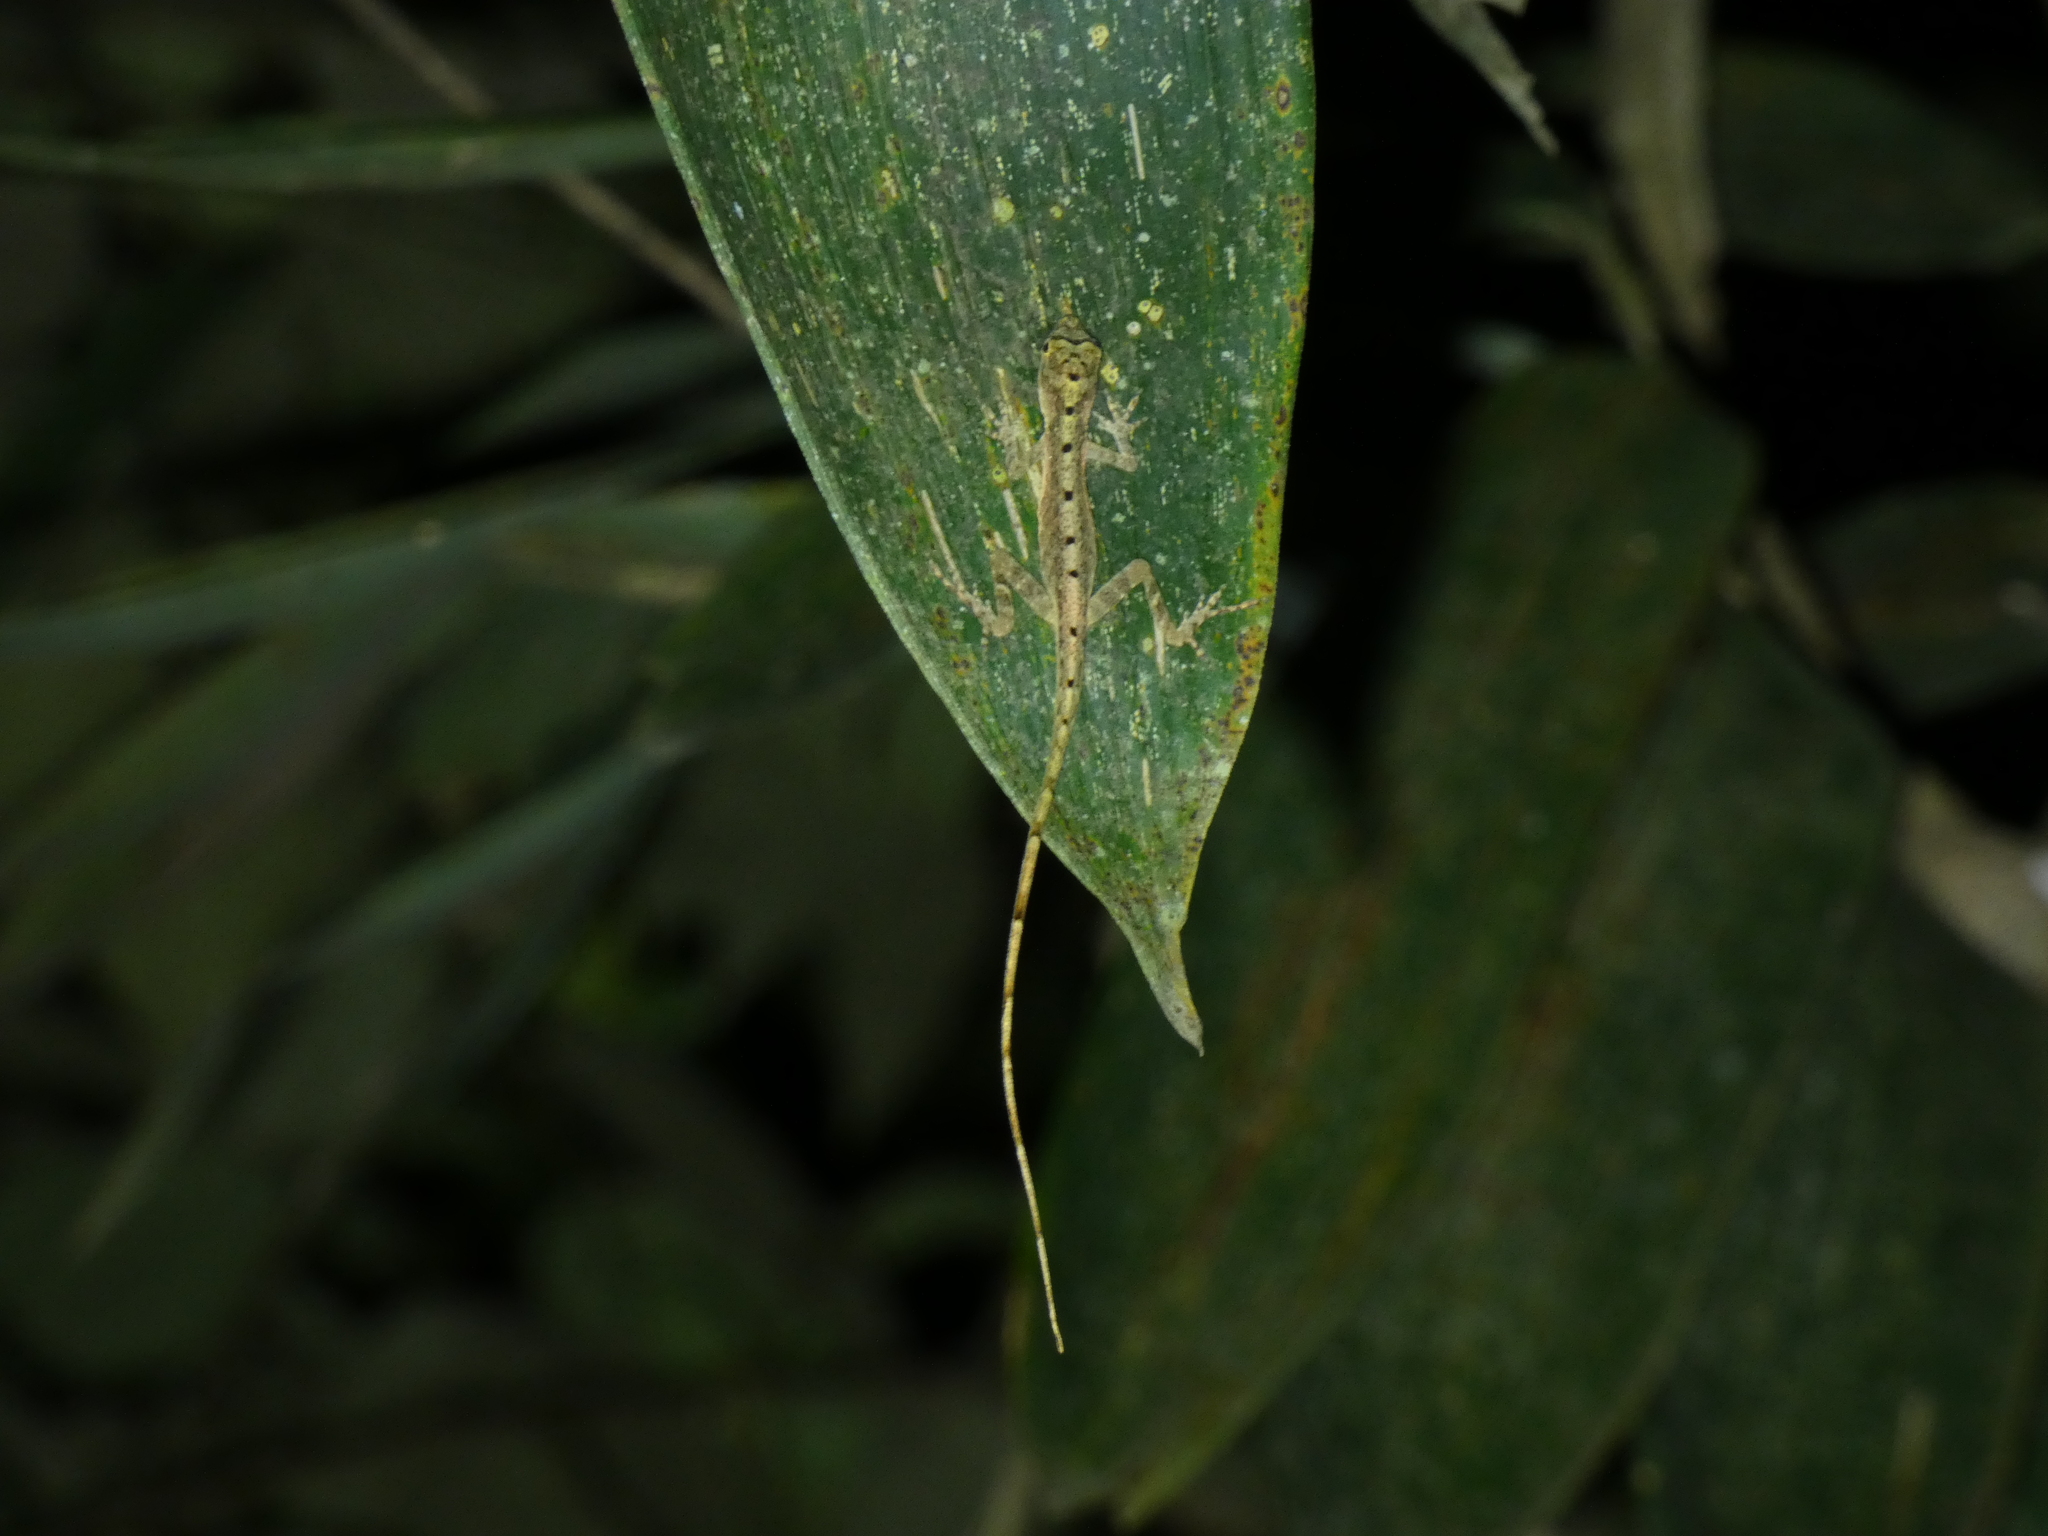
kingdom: Animalia
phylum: Chordata
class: Squamata
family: Dactyloidae
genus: Anolis
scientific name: Anolis fuscoauratus
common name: Brown-eared anole
